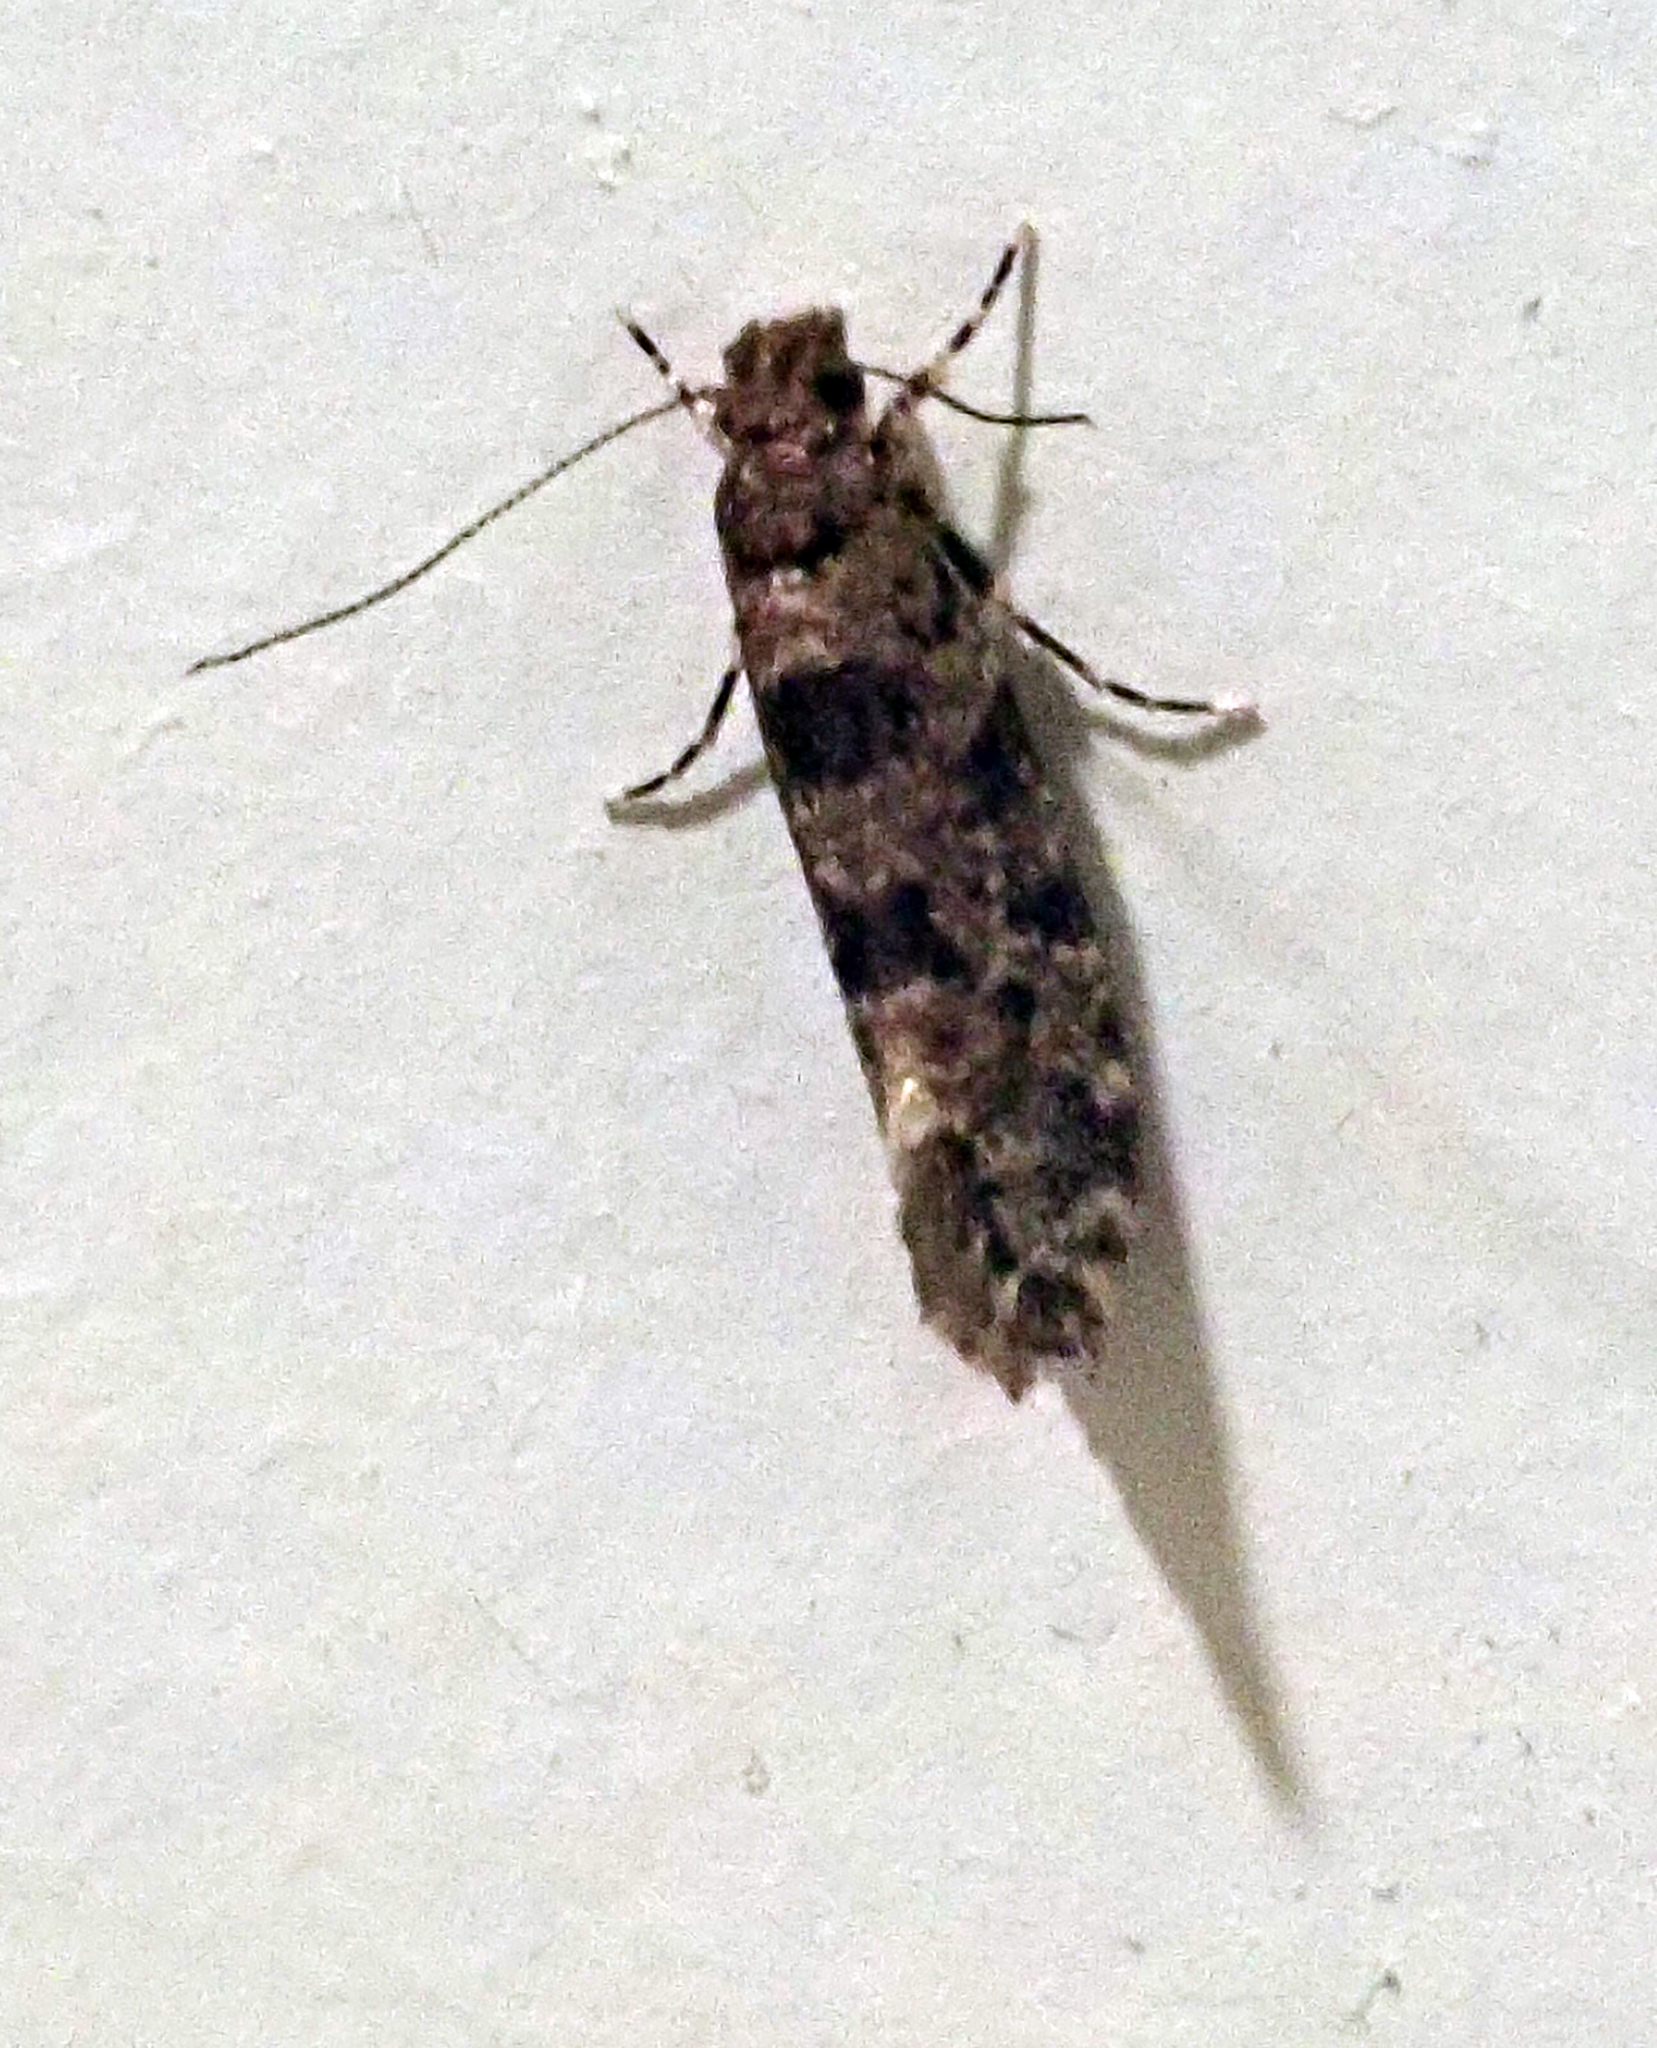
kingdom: Animalia
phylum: Arthropoda
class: Insecta
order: Lepidoptera
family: Tineidae
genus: Parochmastis
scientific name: Parochmastis hilderi
